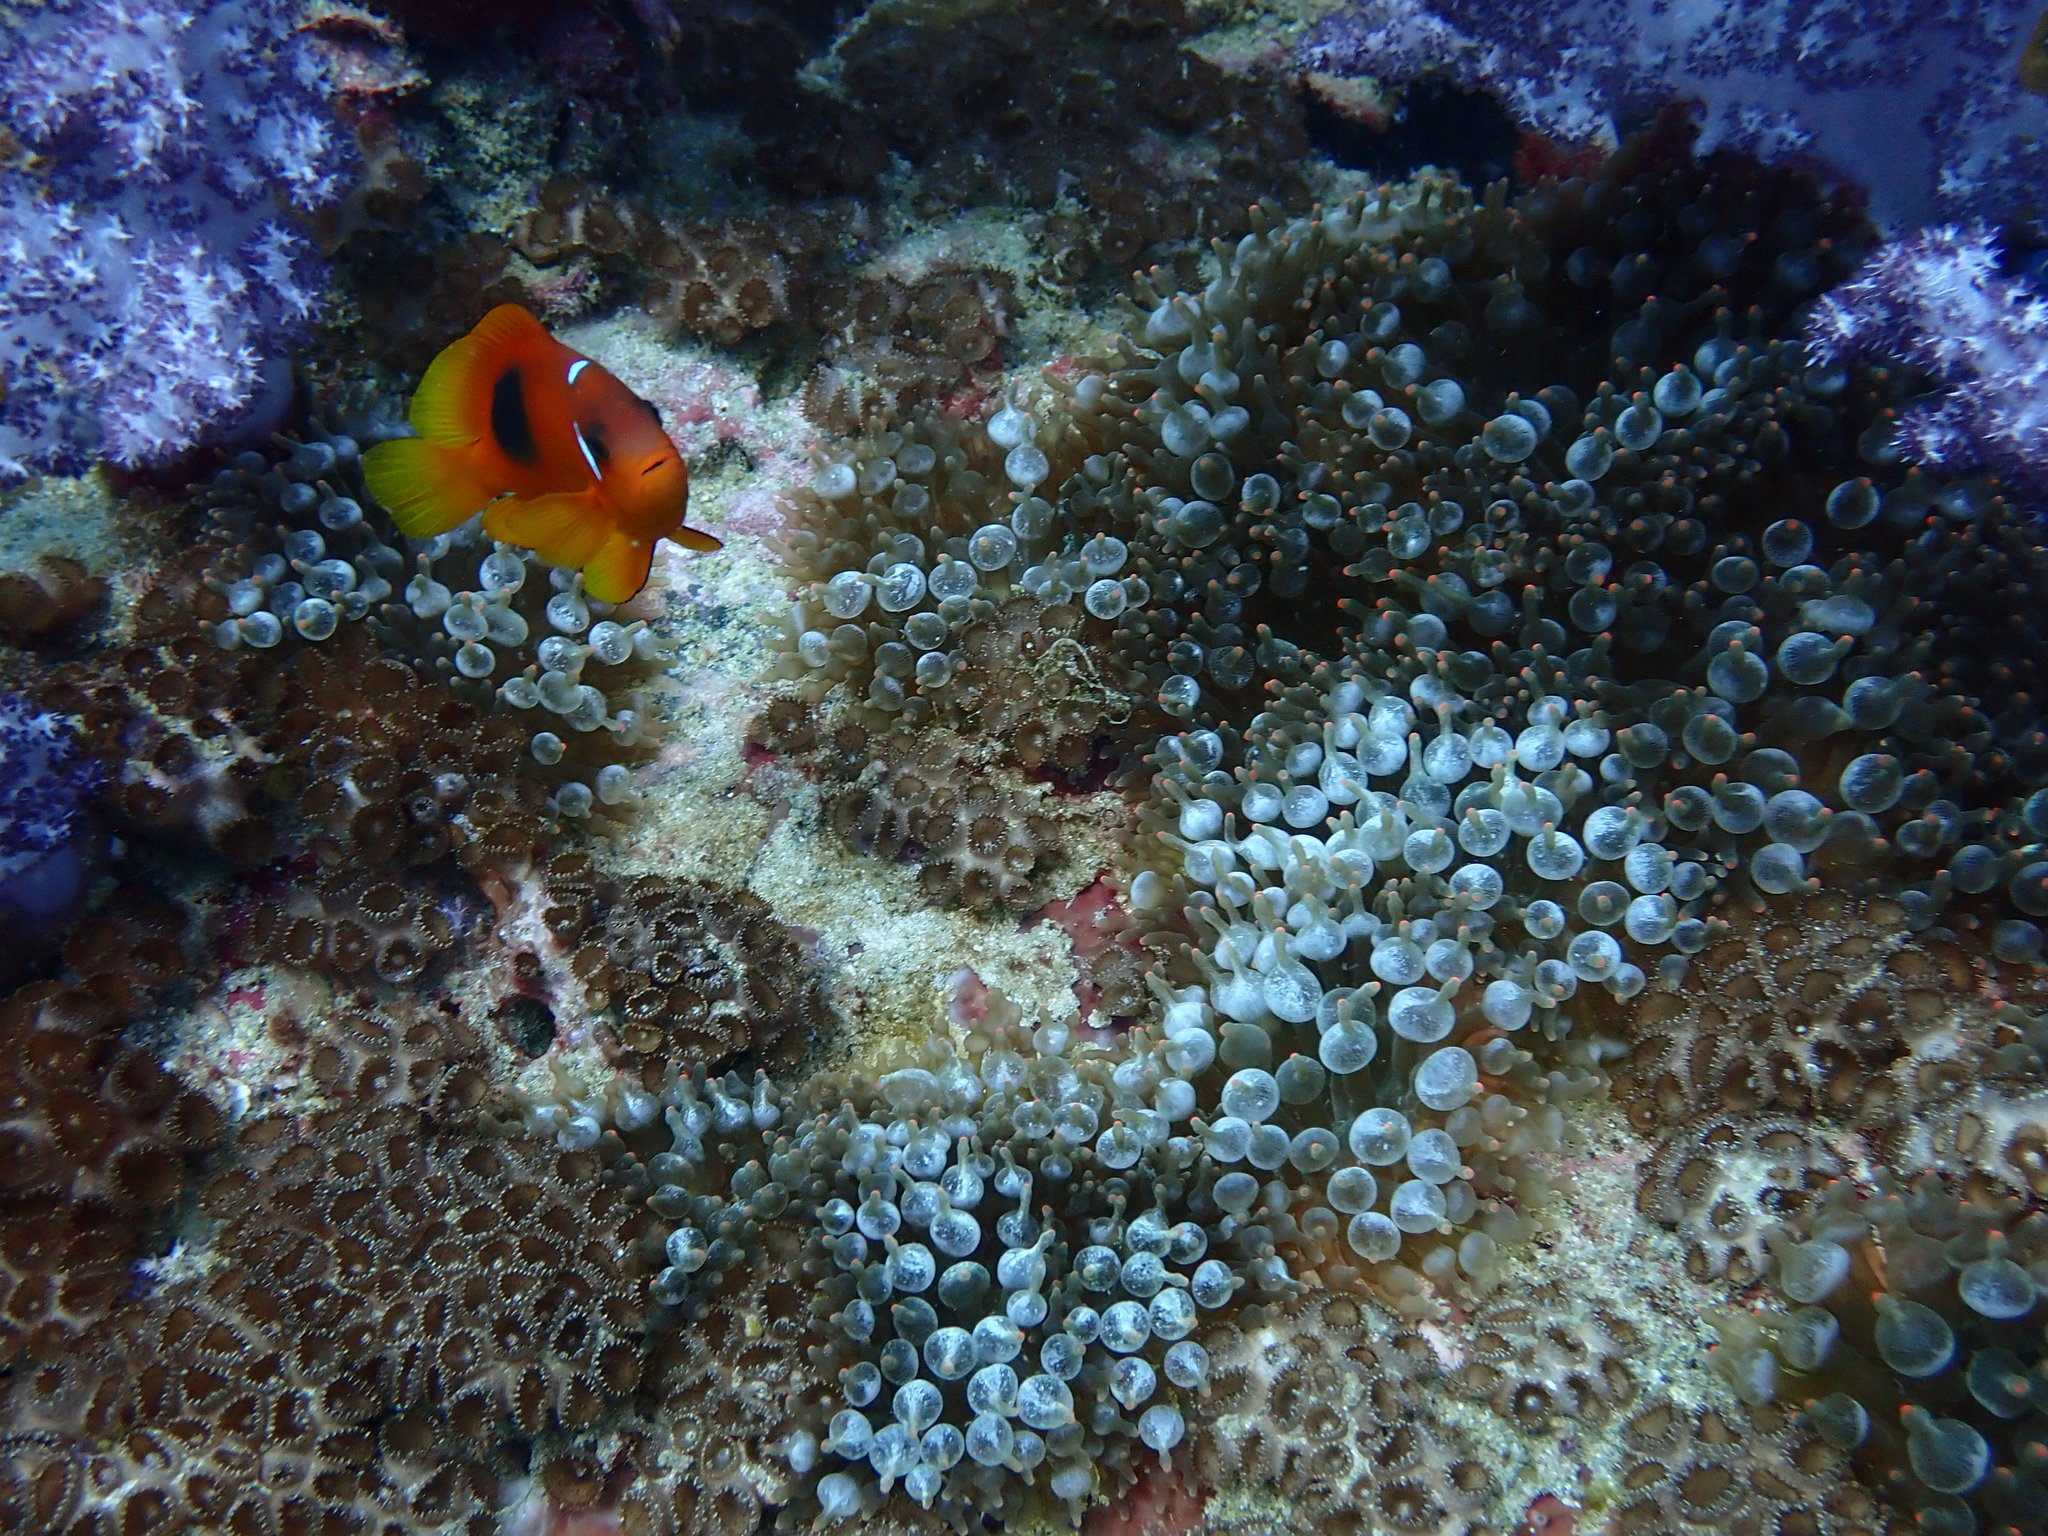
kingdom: Animalia
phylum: Cnidaria
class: Anthozoa
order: Actiniaria
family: Actiniidae
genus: Entacmaea
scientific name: Entacmaea quadricolor
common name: Bulb tentacle sea anemone
